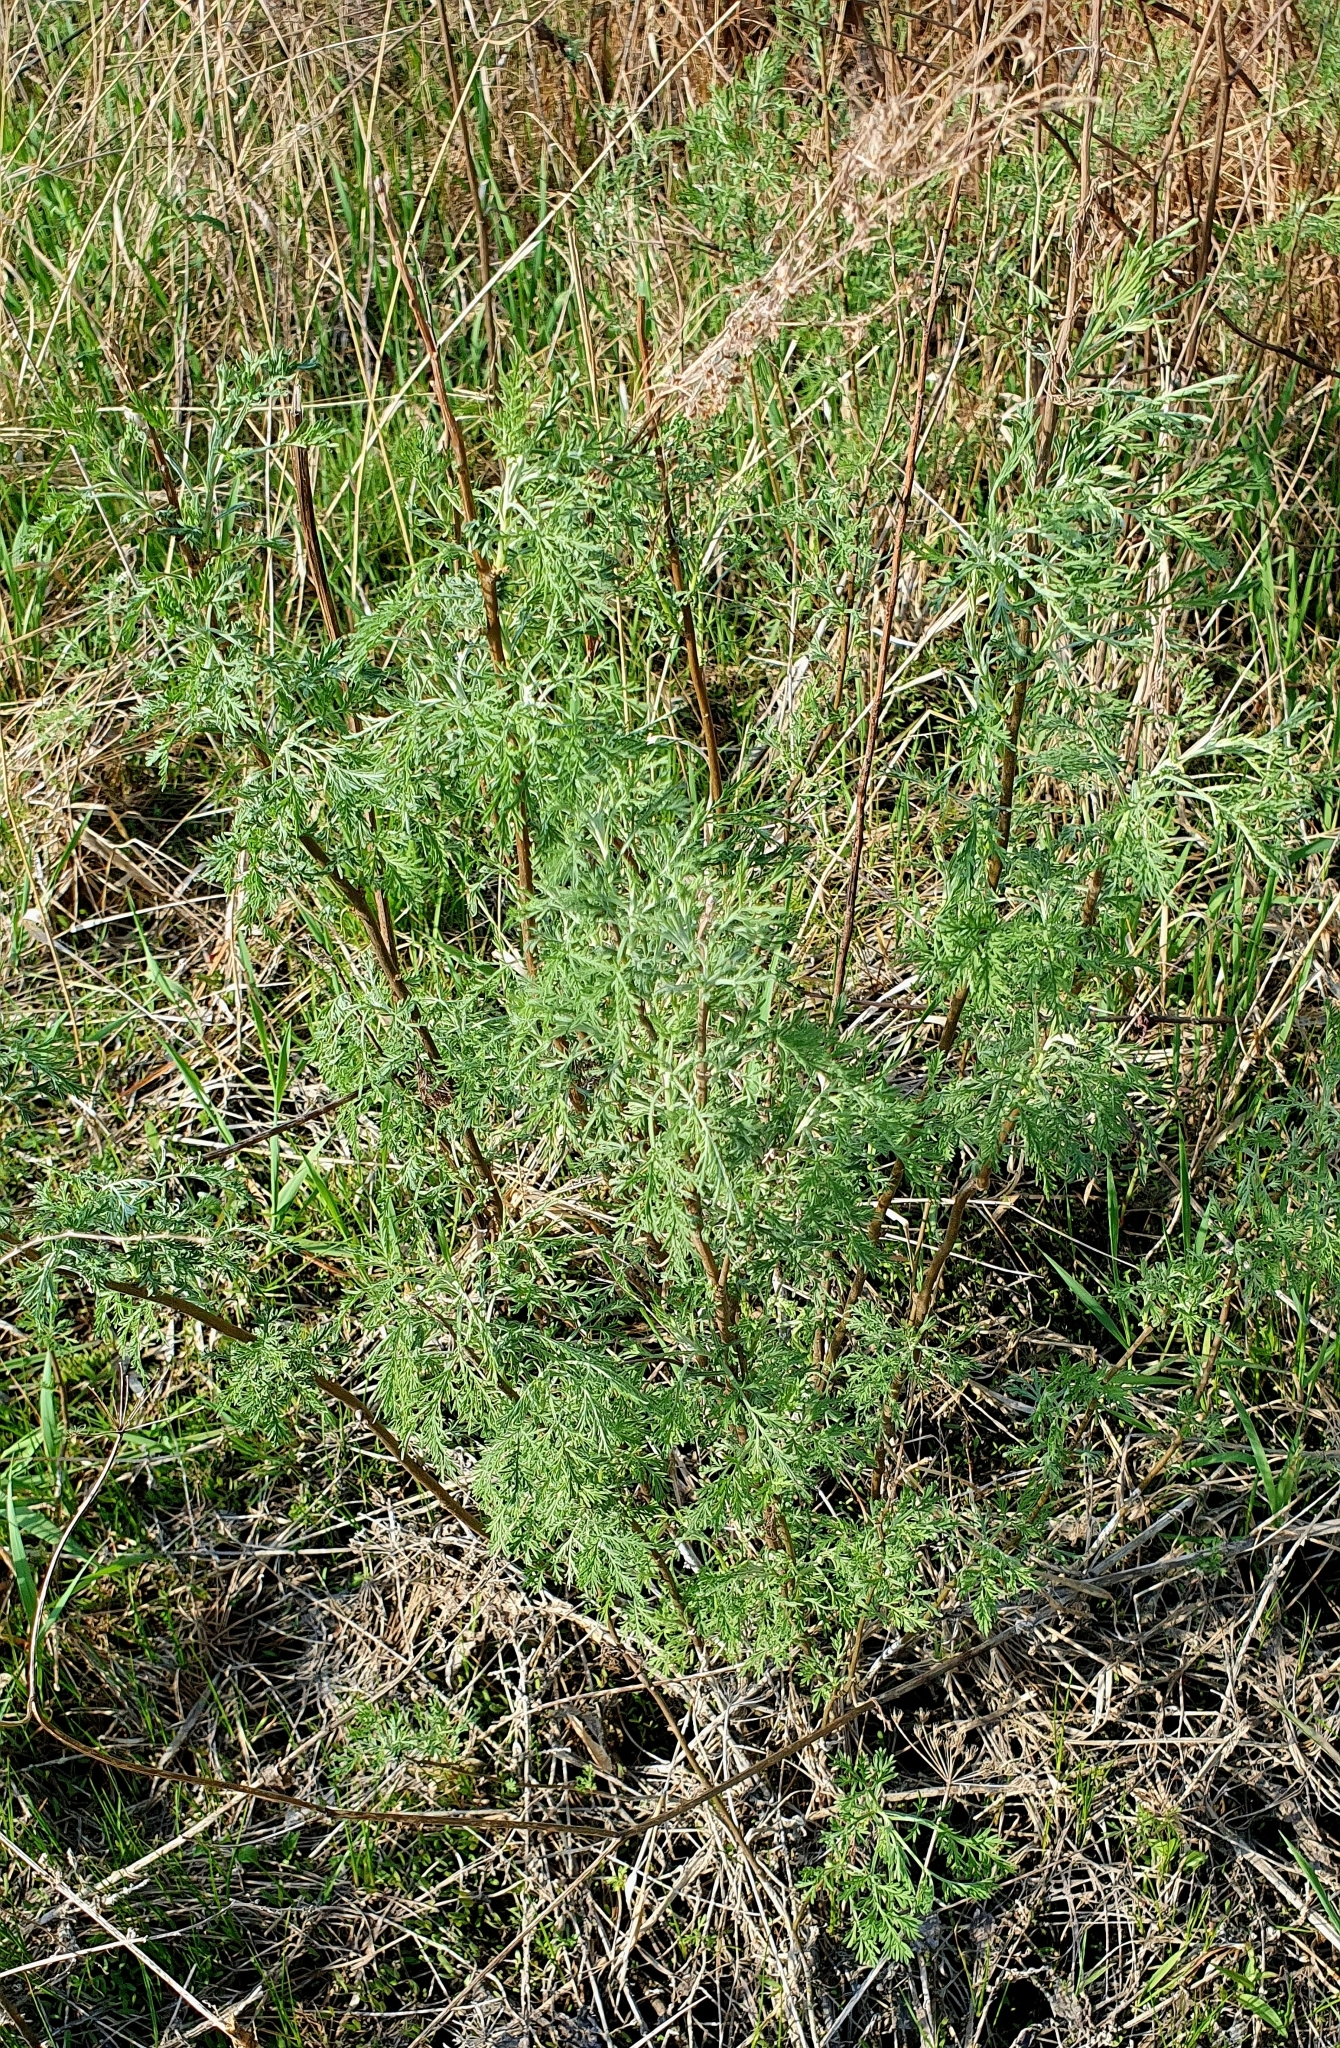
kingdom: Plantae
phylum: Tracheophyta
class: Magnoliopsida
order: Asterales
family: Asteraceae
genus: Artemisia
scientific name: Artemisia abrotanum
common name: Southernwood
